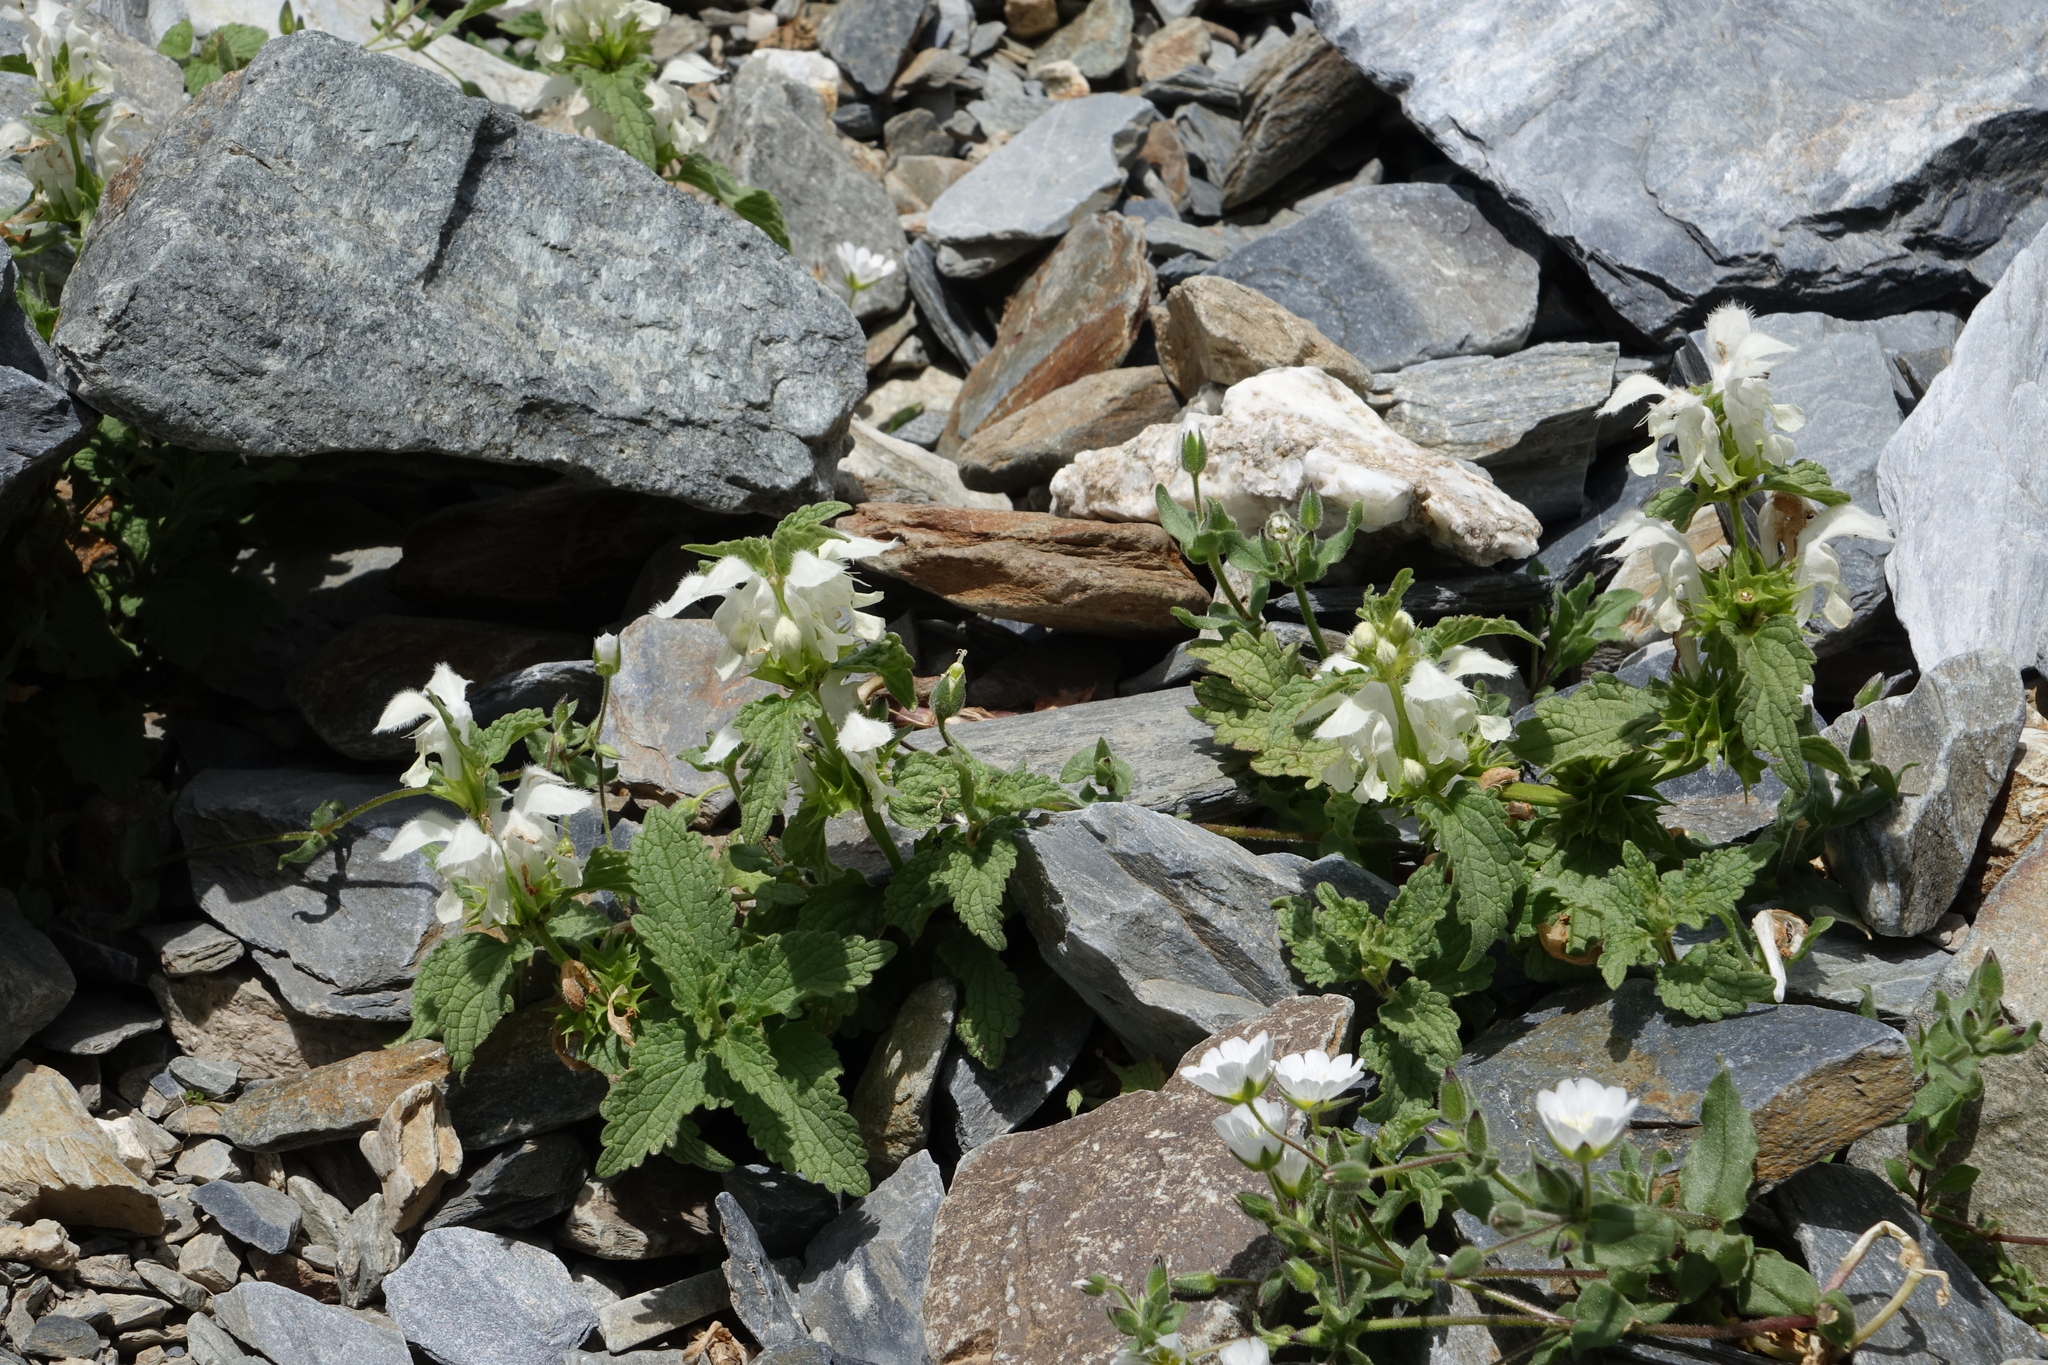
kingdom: Plantae
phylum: Tracheophyta
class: Magnoliopsida
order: Lamiales
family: Lamiaceae
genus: Lamium
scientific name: Lamium album
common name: White dead-nettle
